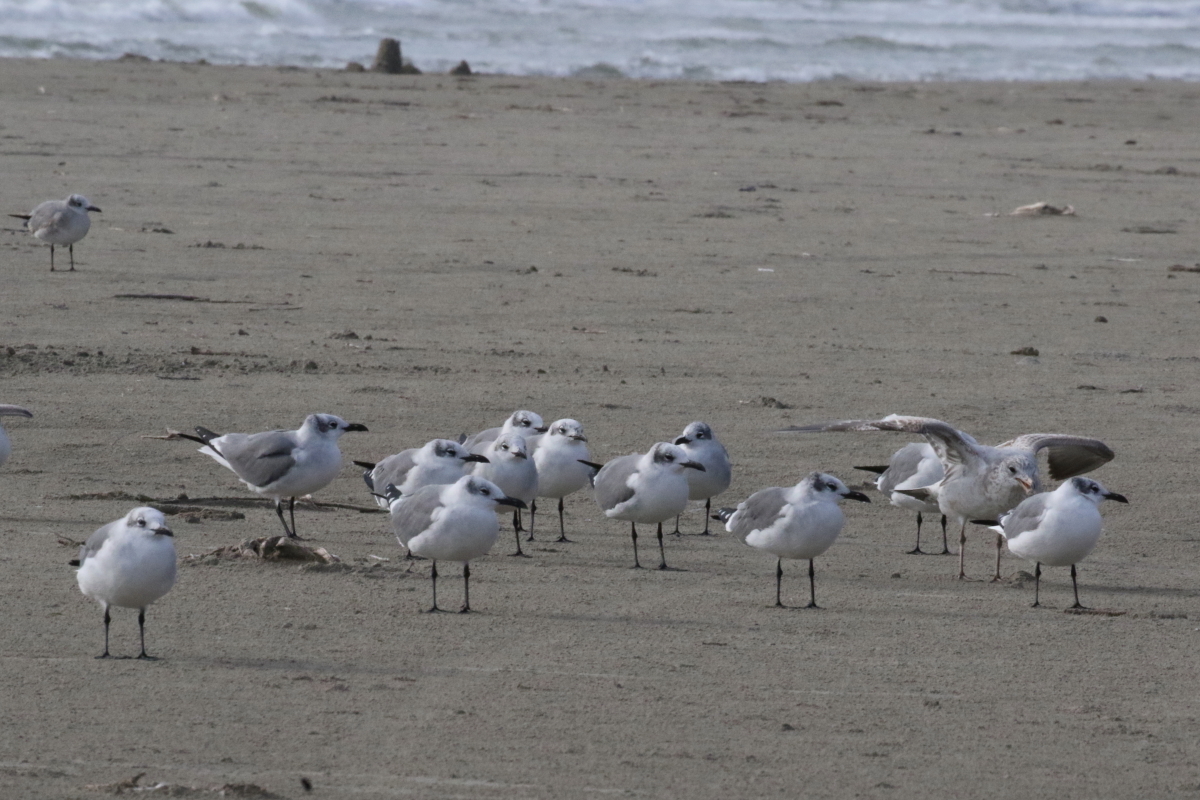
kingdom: Animalia
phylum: Chordata
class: Aves
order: Charadriiformes
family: Laridae
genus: Leucophaeus
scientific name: Leucophaeus atricilla
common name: Laughing gull
